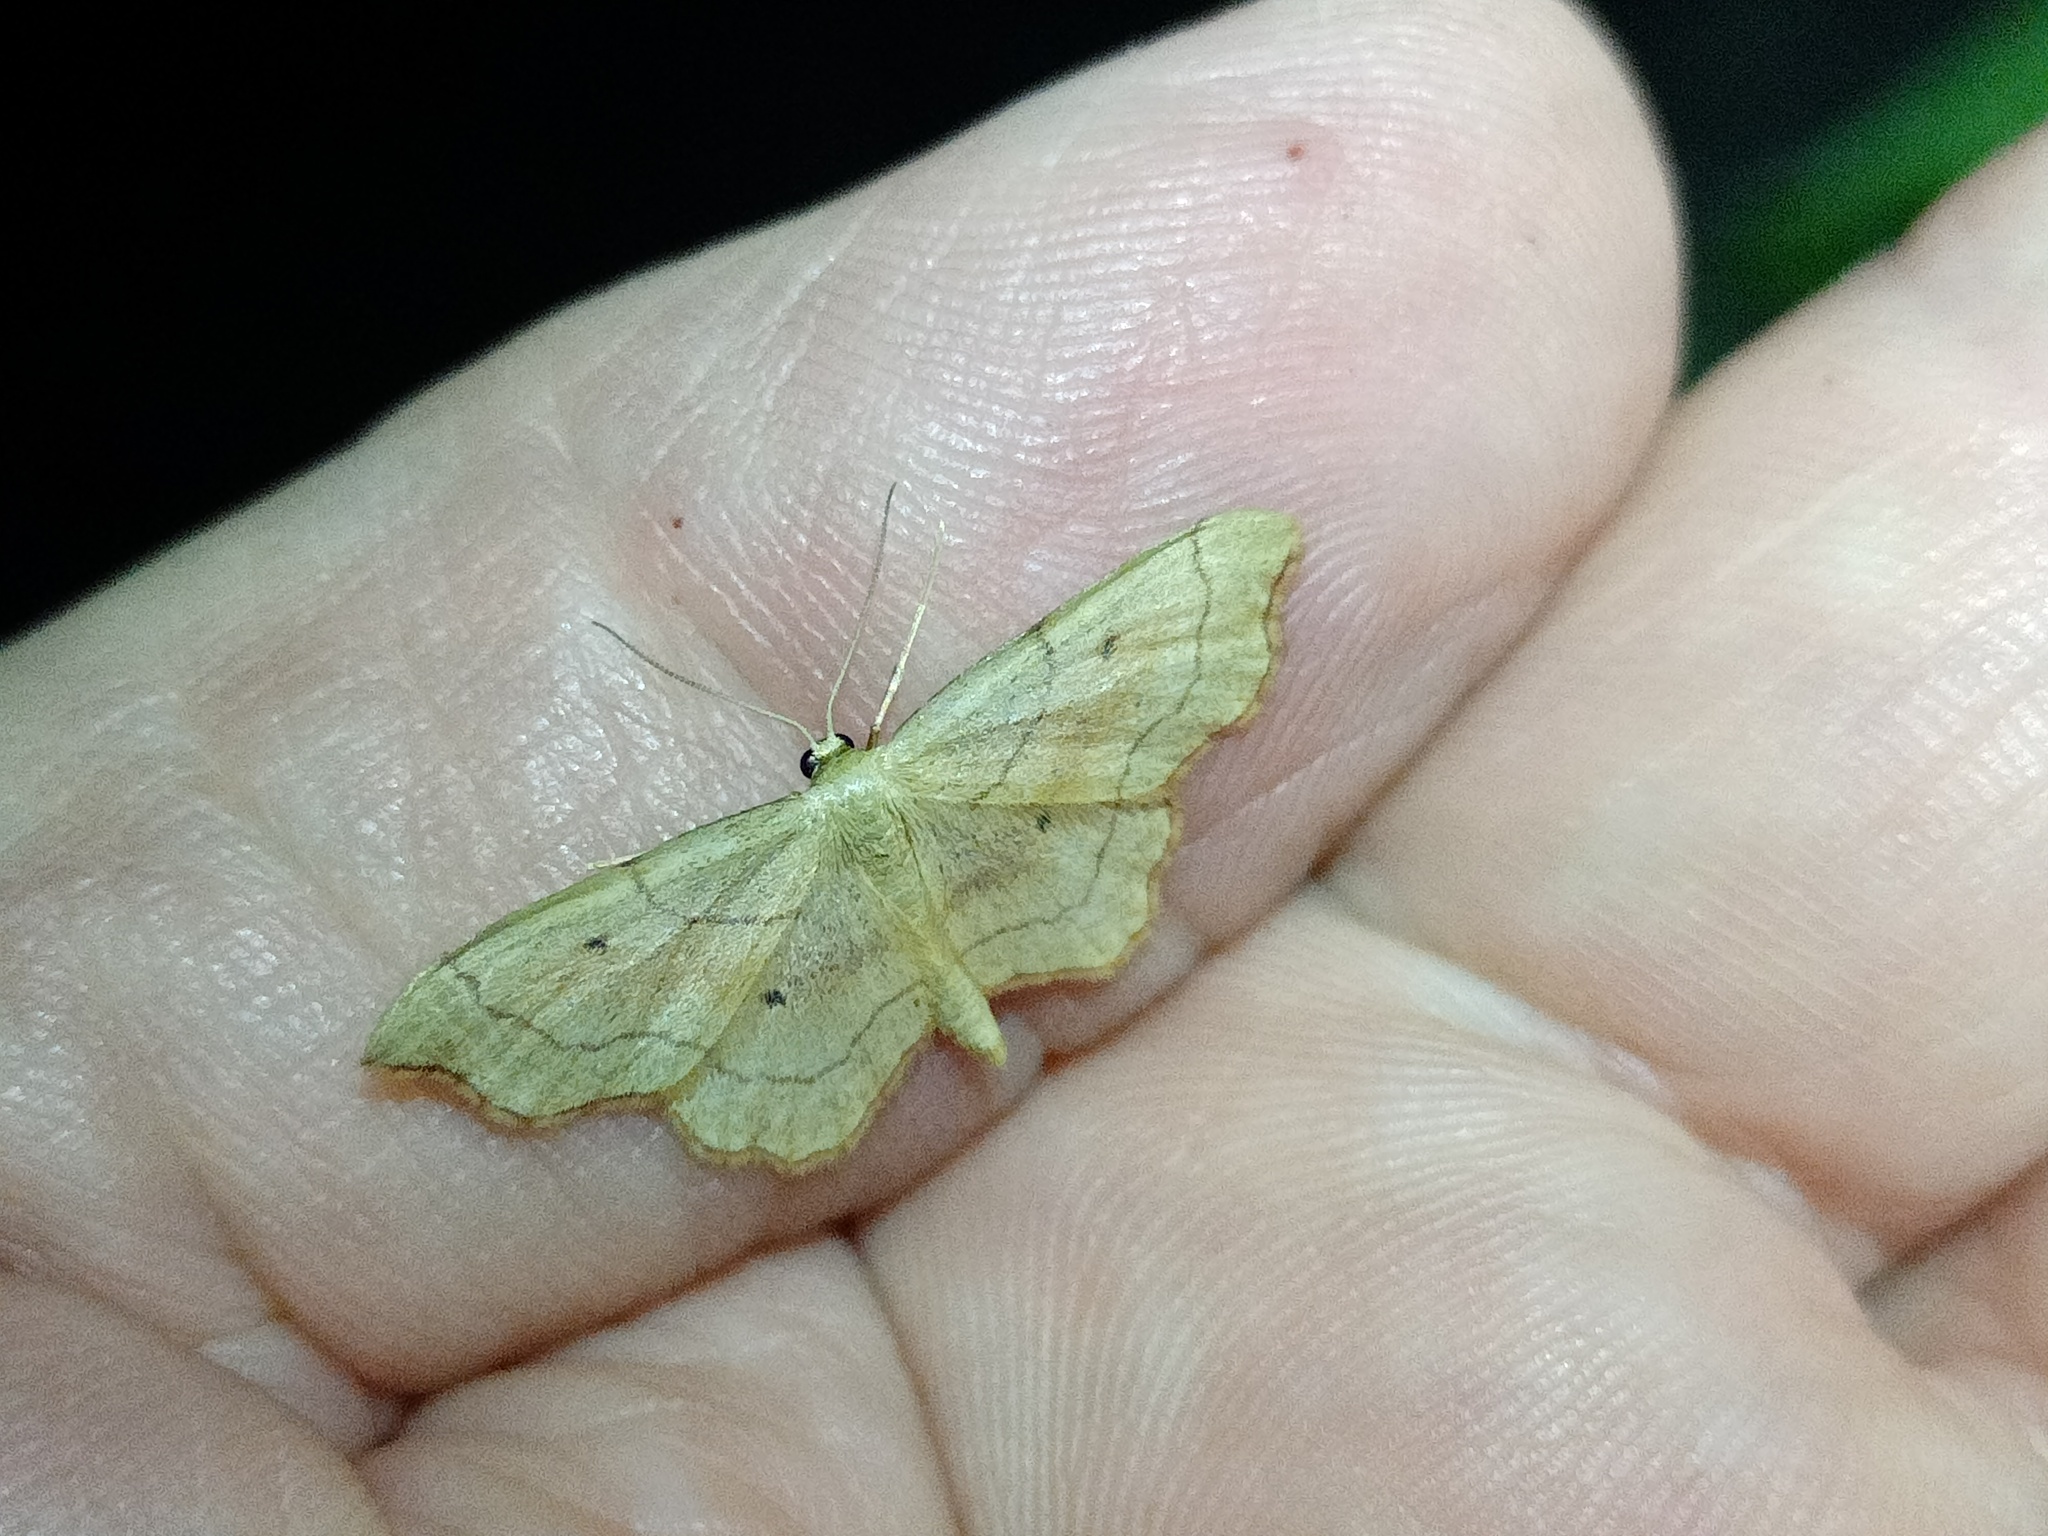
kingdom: Animalia
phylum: Arthropoda
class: Insecta
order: Lepidoptera
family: Geometridae
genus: Idaea
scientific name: Idaea emarginata
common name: Small scallop
